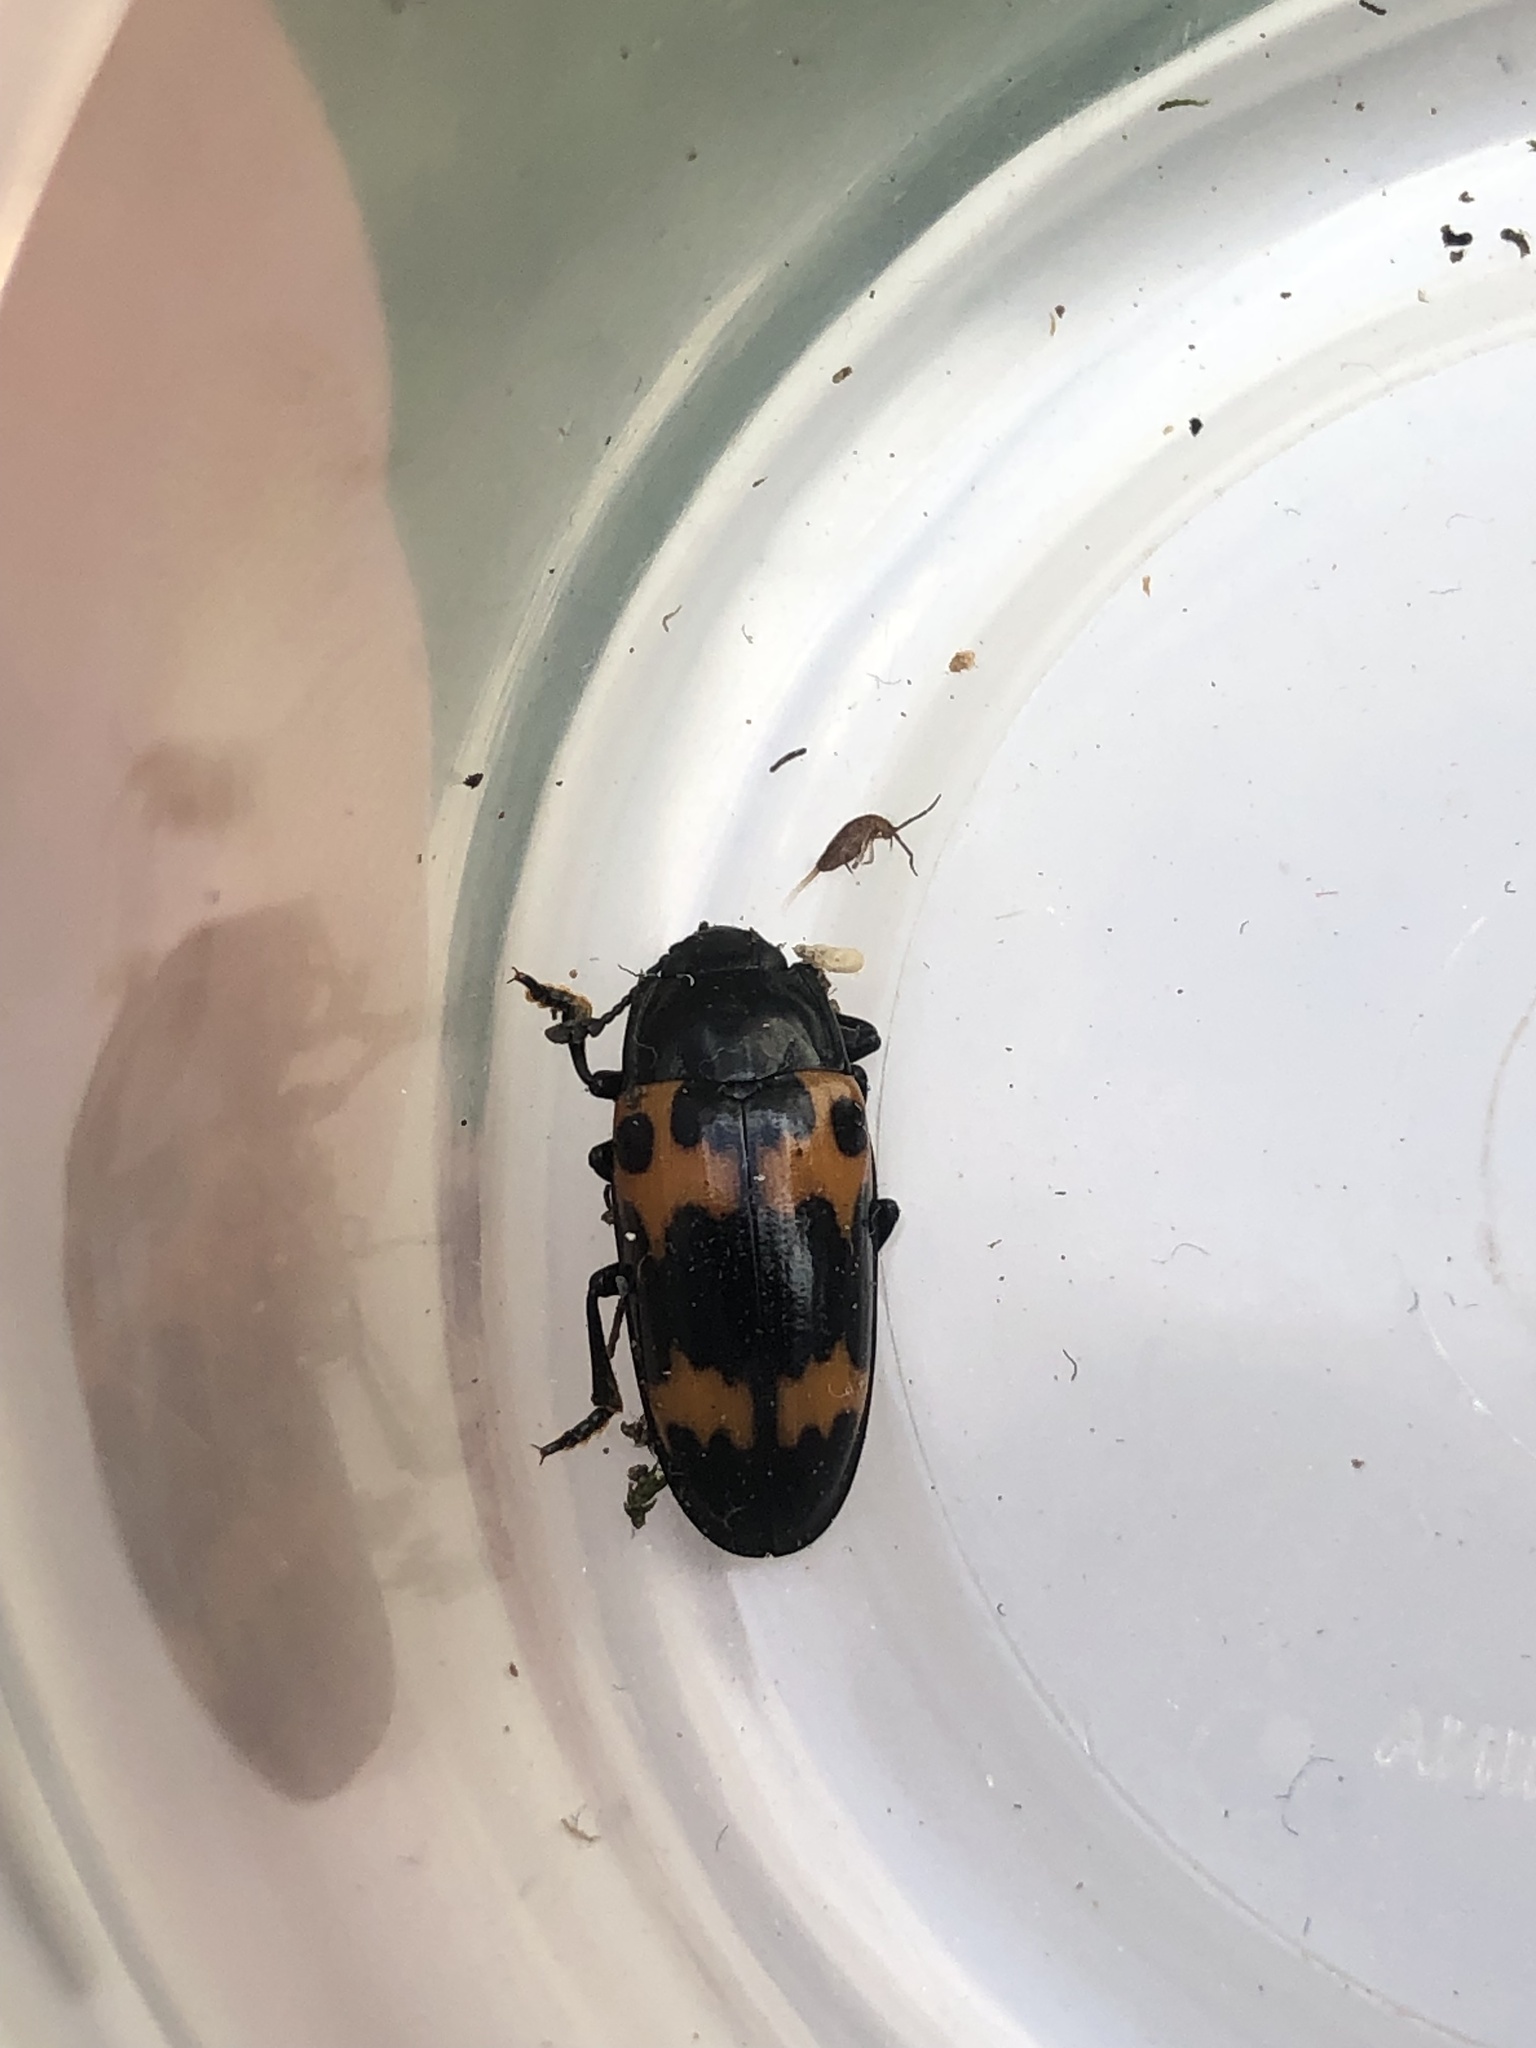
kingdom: Animalia
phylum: Arthropoda
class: Insecta
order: Coleoptera
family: Erotylidae
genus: Megalodacne
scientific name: Megalodacne fasciata
